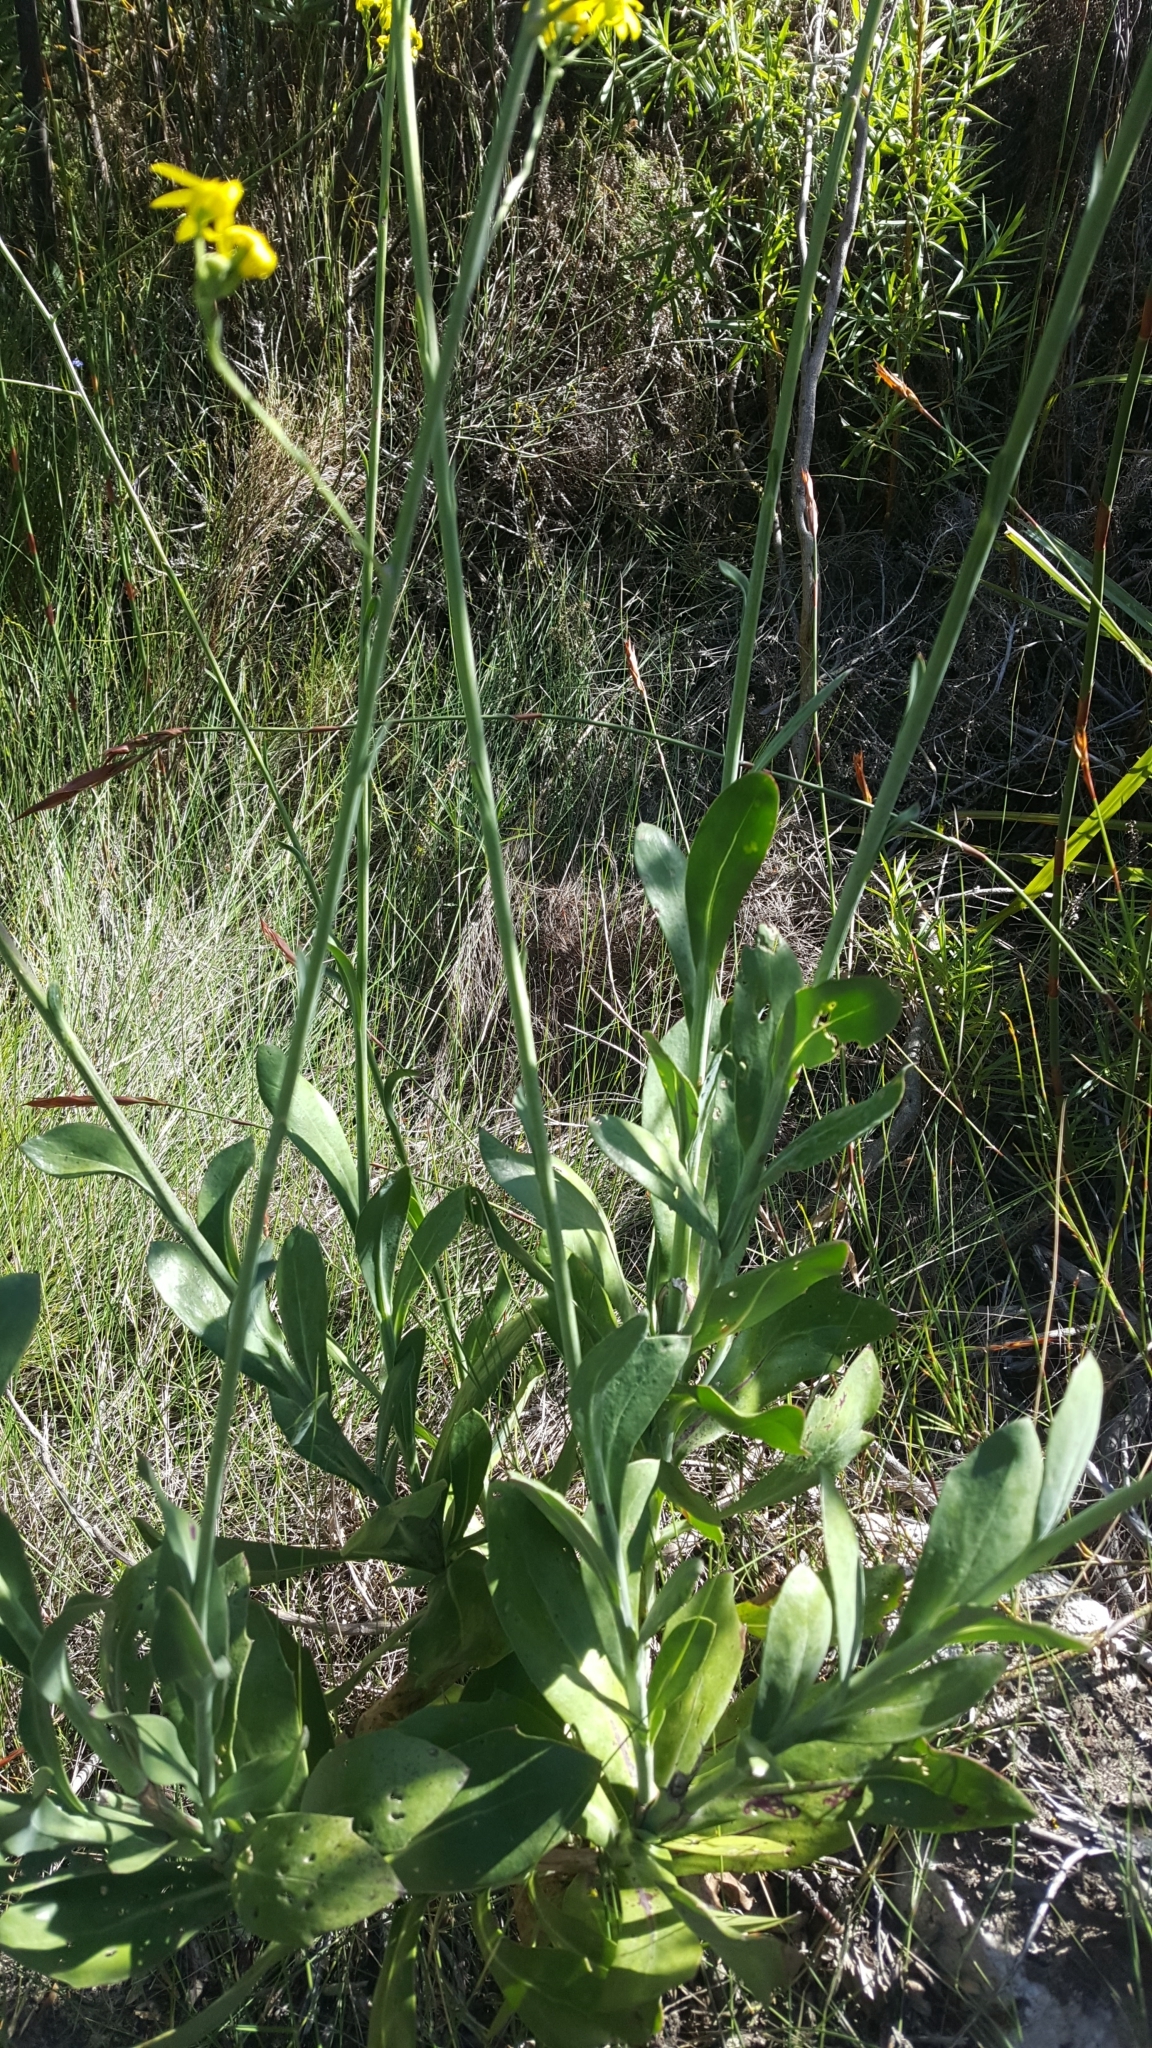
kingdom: Plantae
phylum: Tracheophyta
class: Magnoliopsida
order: Asterales
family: Asteraceae
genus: Othonna
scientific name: Othonna quinquedentata
